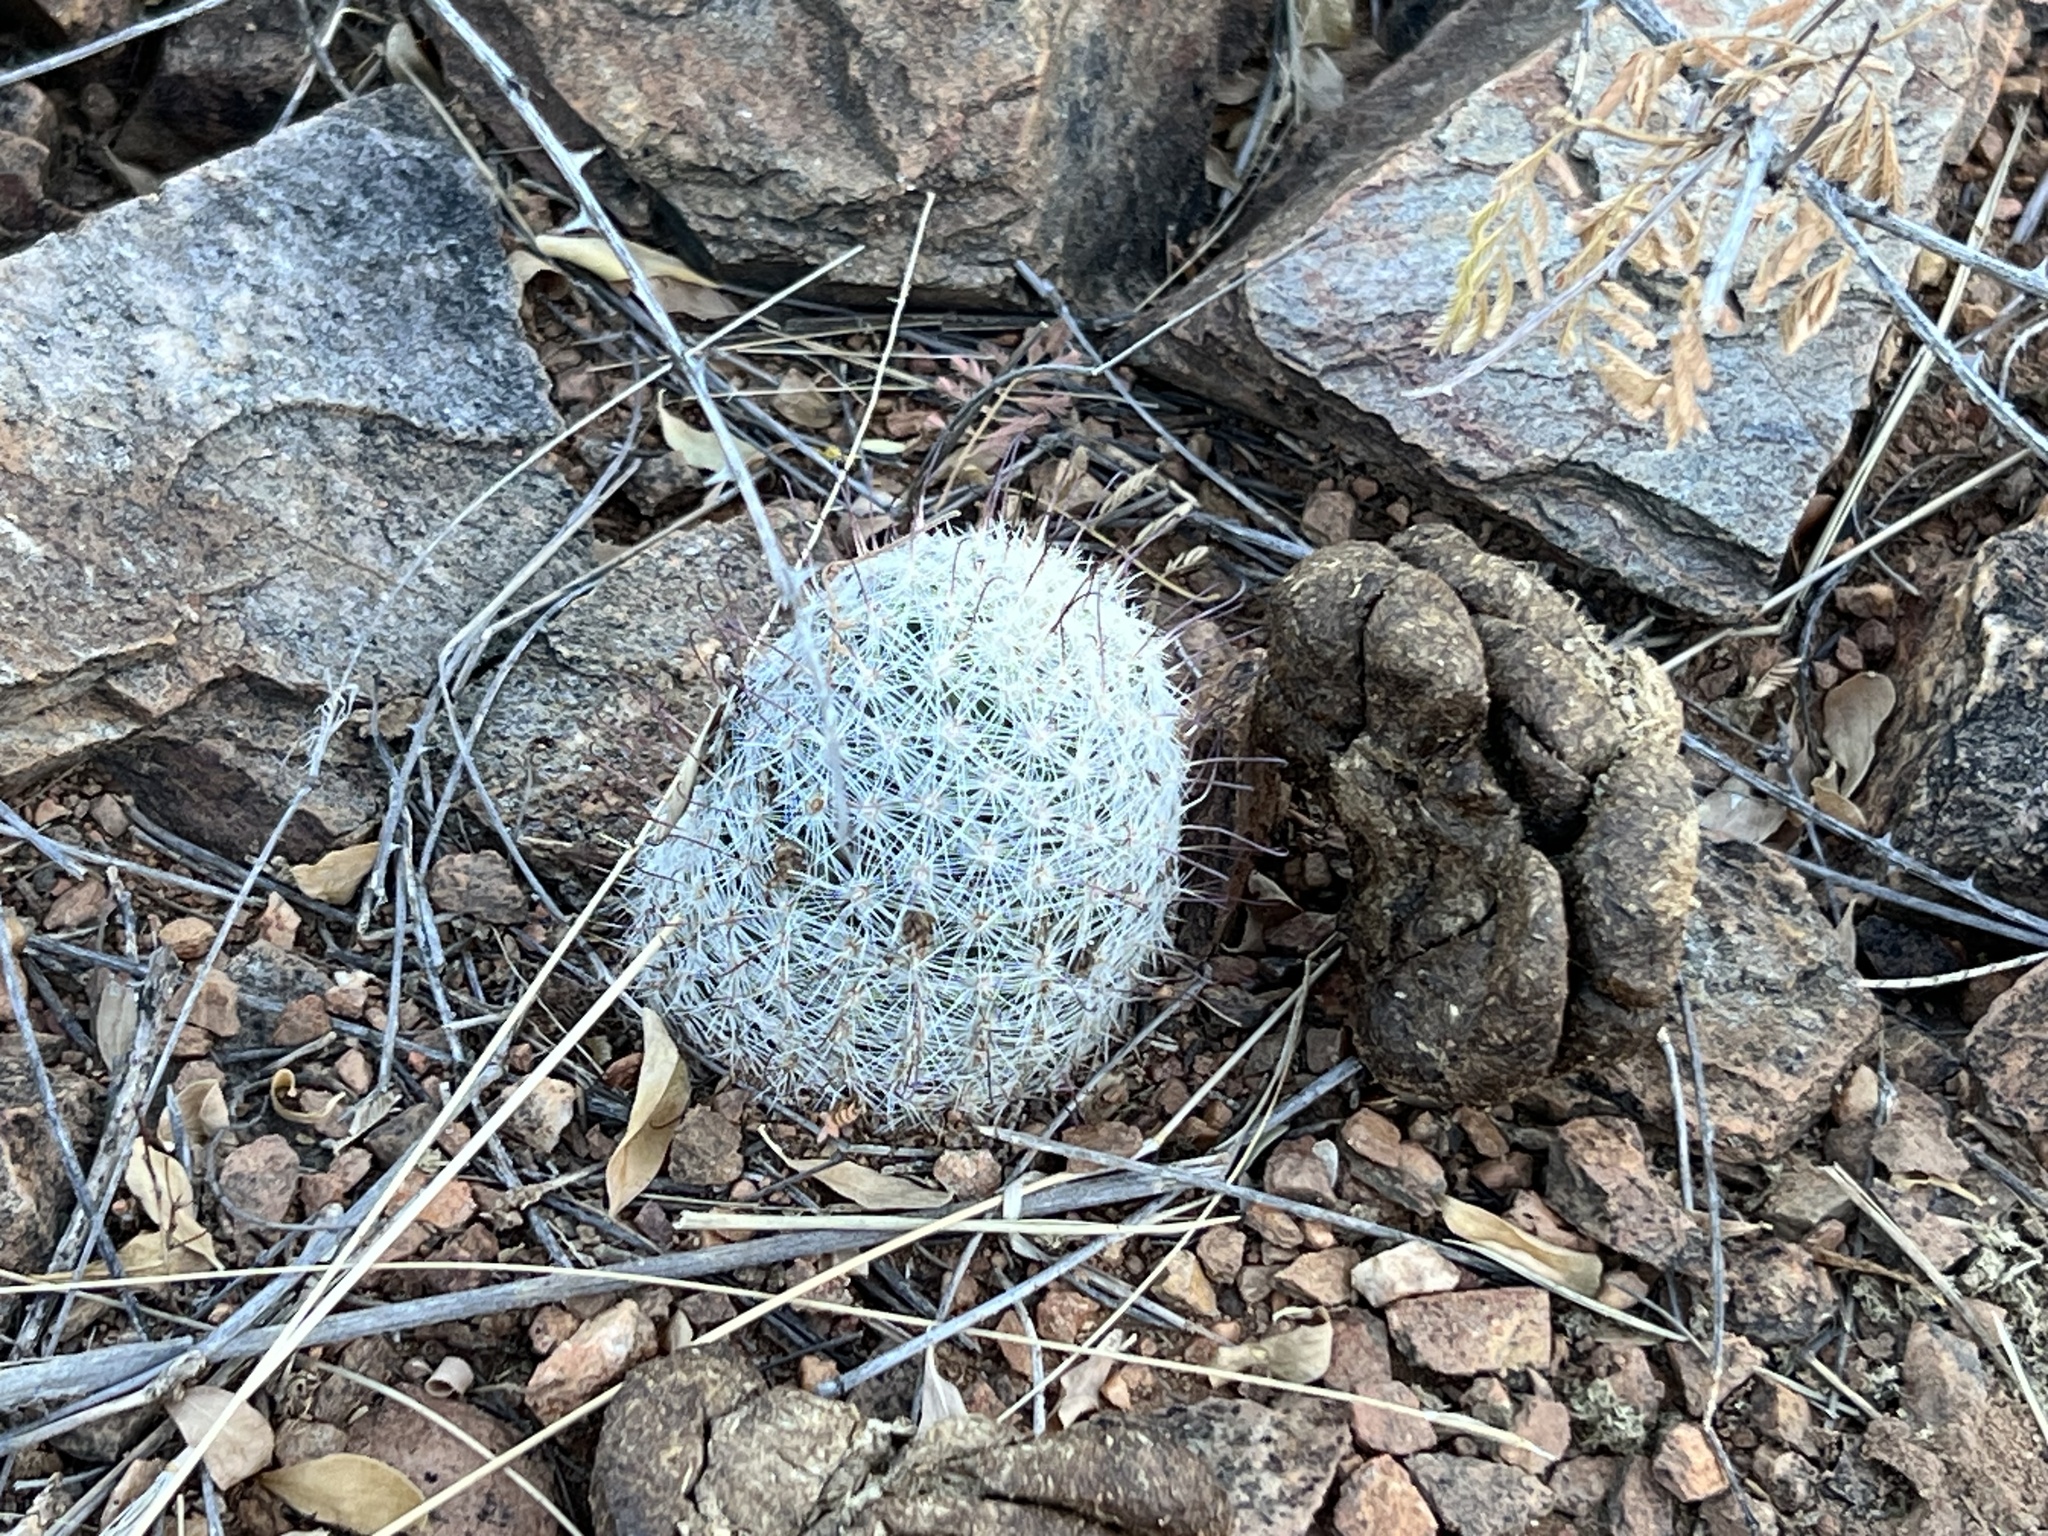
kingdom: Plantae
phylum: Tracheophyta
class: Magnoliopsida
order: Caryophyllales
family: Cactaceae
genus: Cochemiea
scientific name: Cochemiea grahamii
